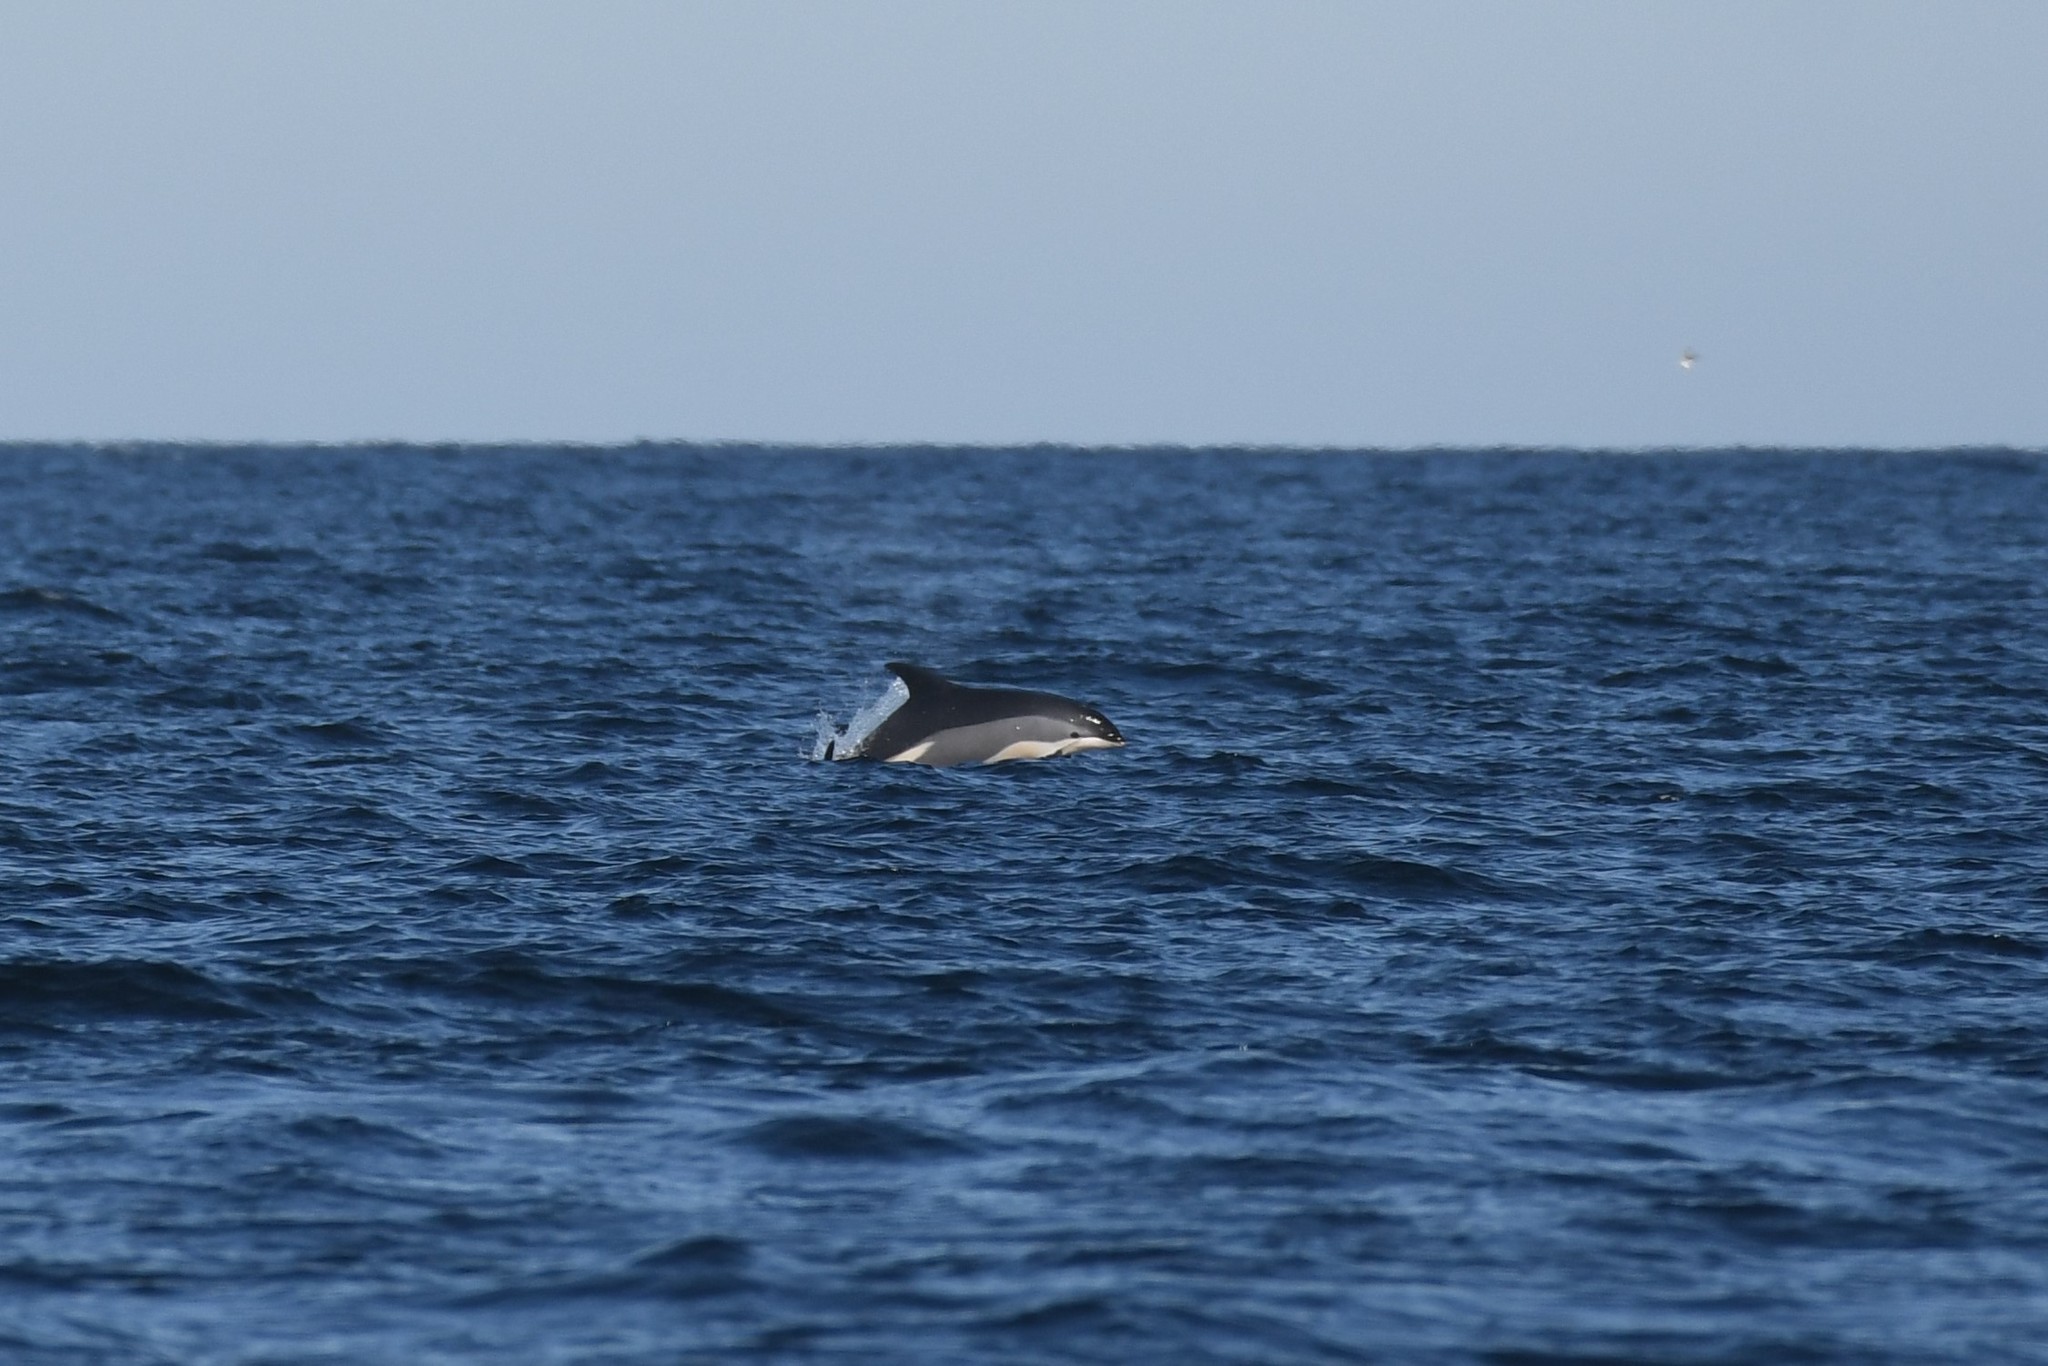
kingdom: Animalia
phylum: Chordata
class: Mammalia
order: Cetacea
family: Delphinidae
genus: Lagenorhynchus
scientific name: Lagenorhynchus acutus
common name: Atlantic white-sided dolphin
